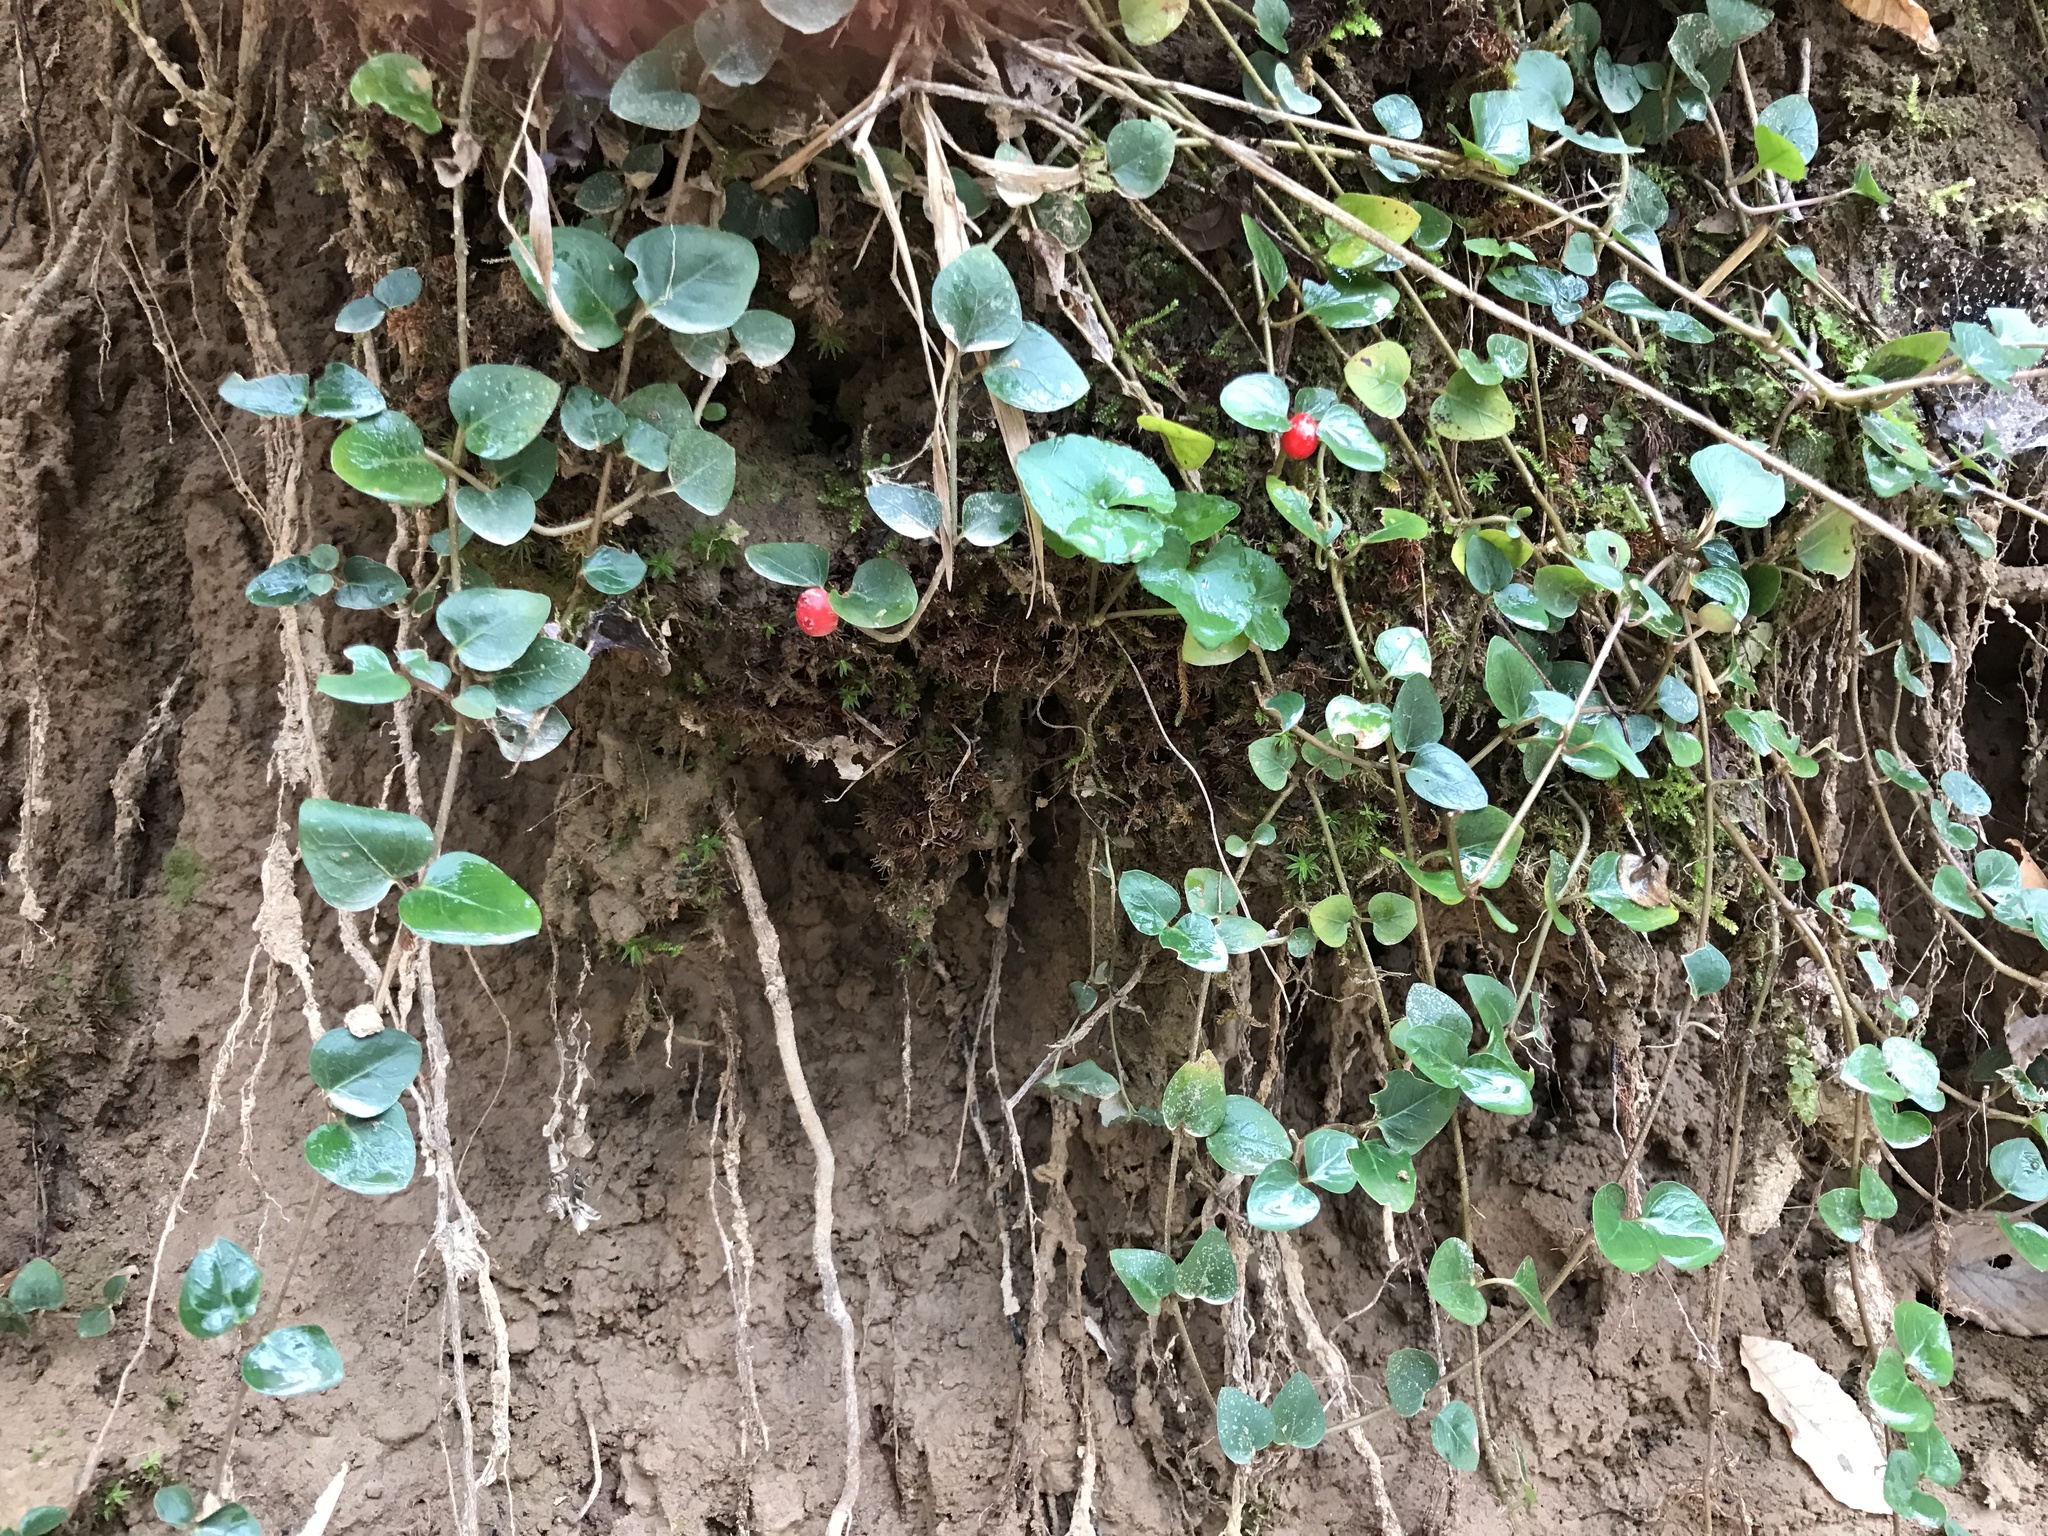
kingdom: Plantae
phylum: Tracheophyta
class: Magnoliopsida
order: Gentianales
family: Rubiaceae
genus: Mitchella
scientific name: Mitchella repens
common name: Partridge-berry
